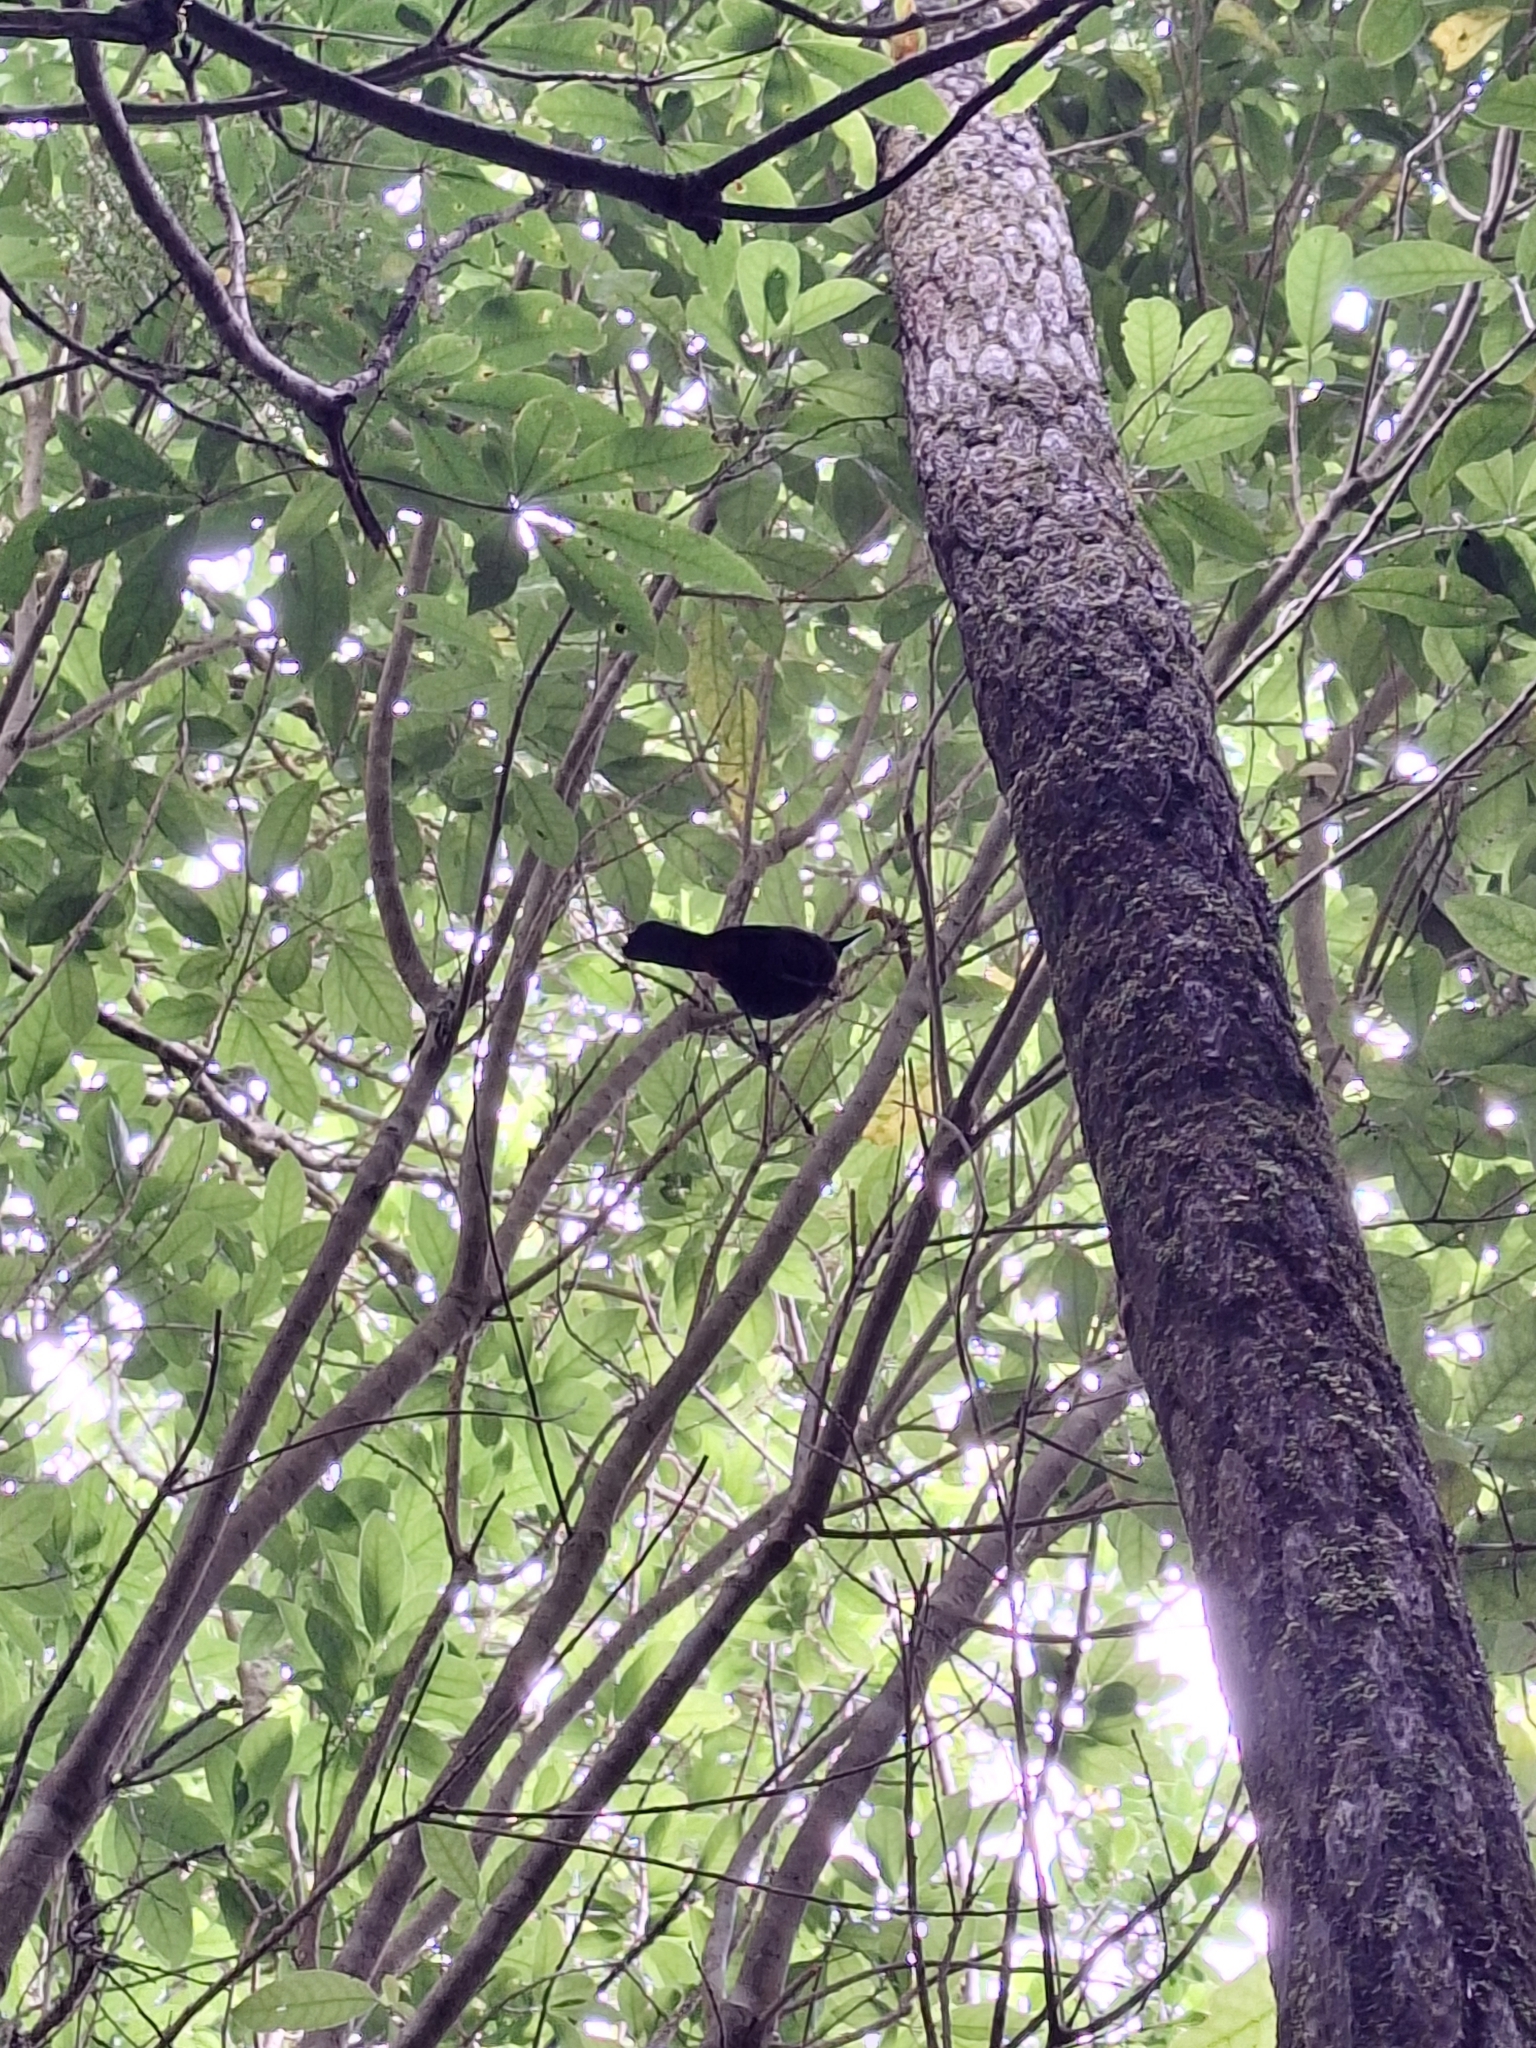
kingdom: Animalia
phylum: Chordata
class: Aves
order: Passeriformes
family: Callaeatidae
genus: Philesturnus
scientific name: Philesturnus carunculatus
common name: South island saddleback
